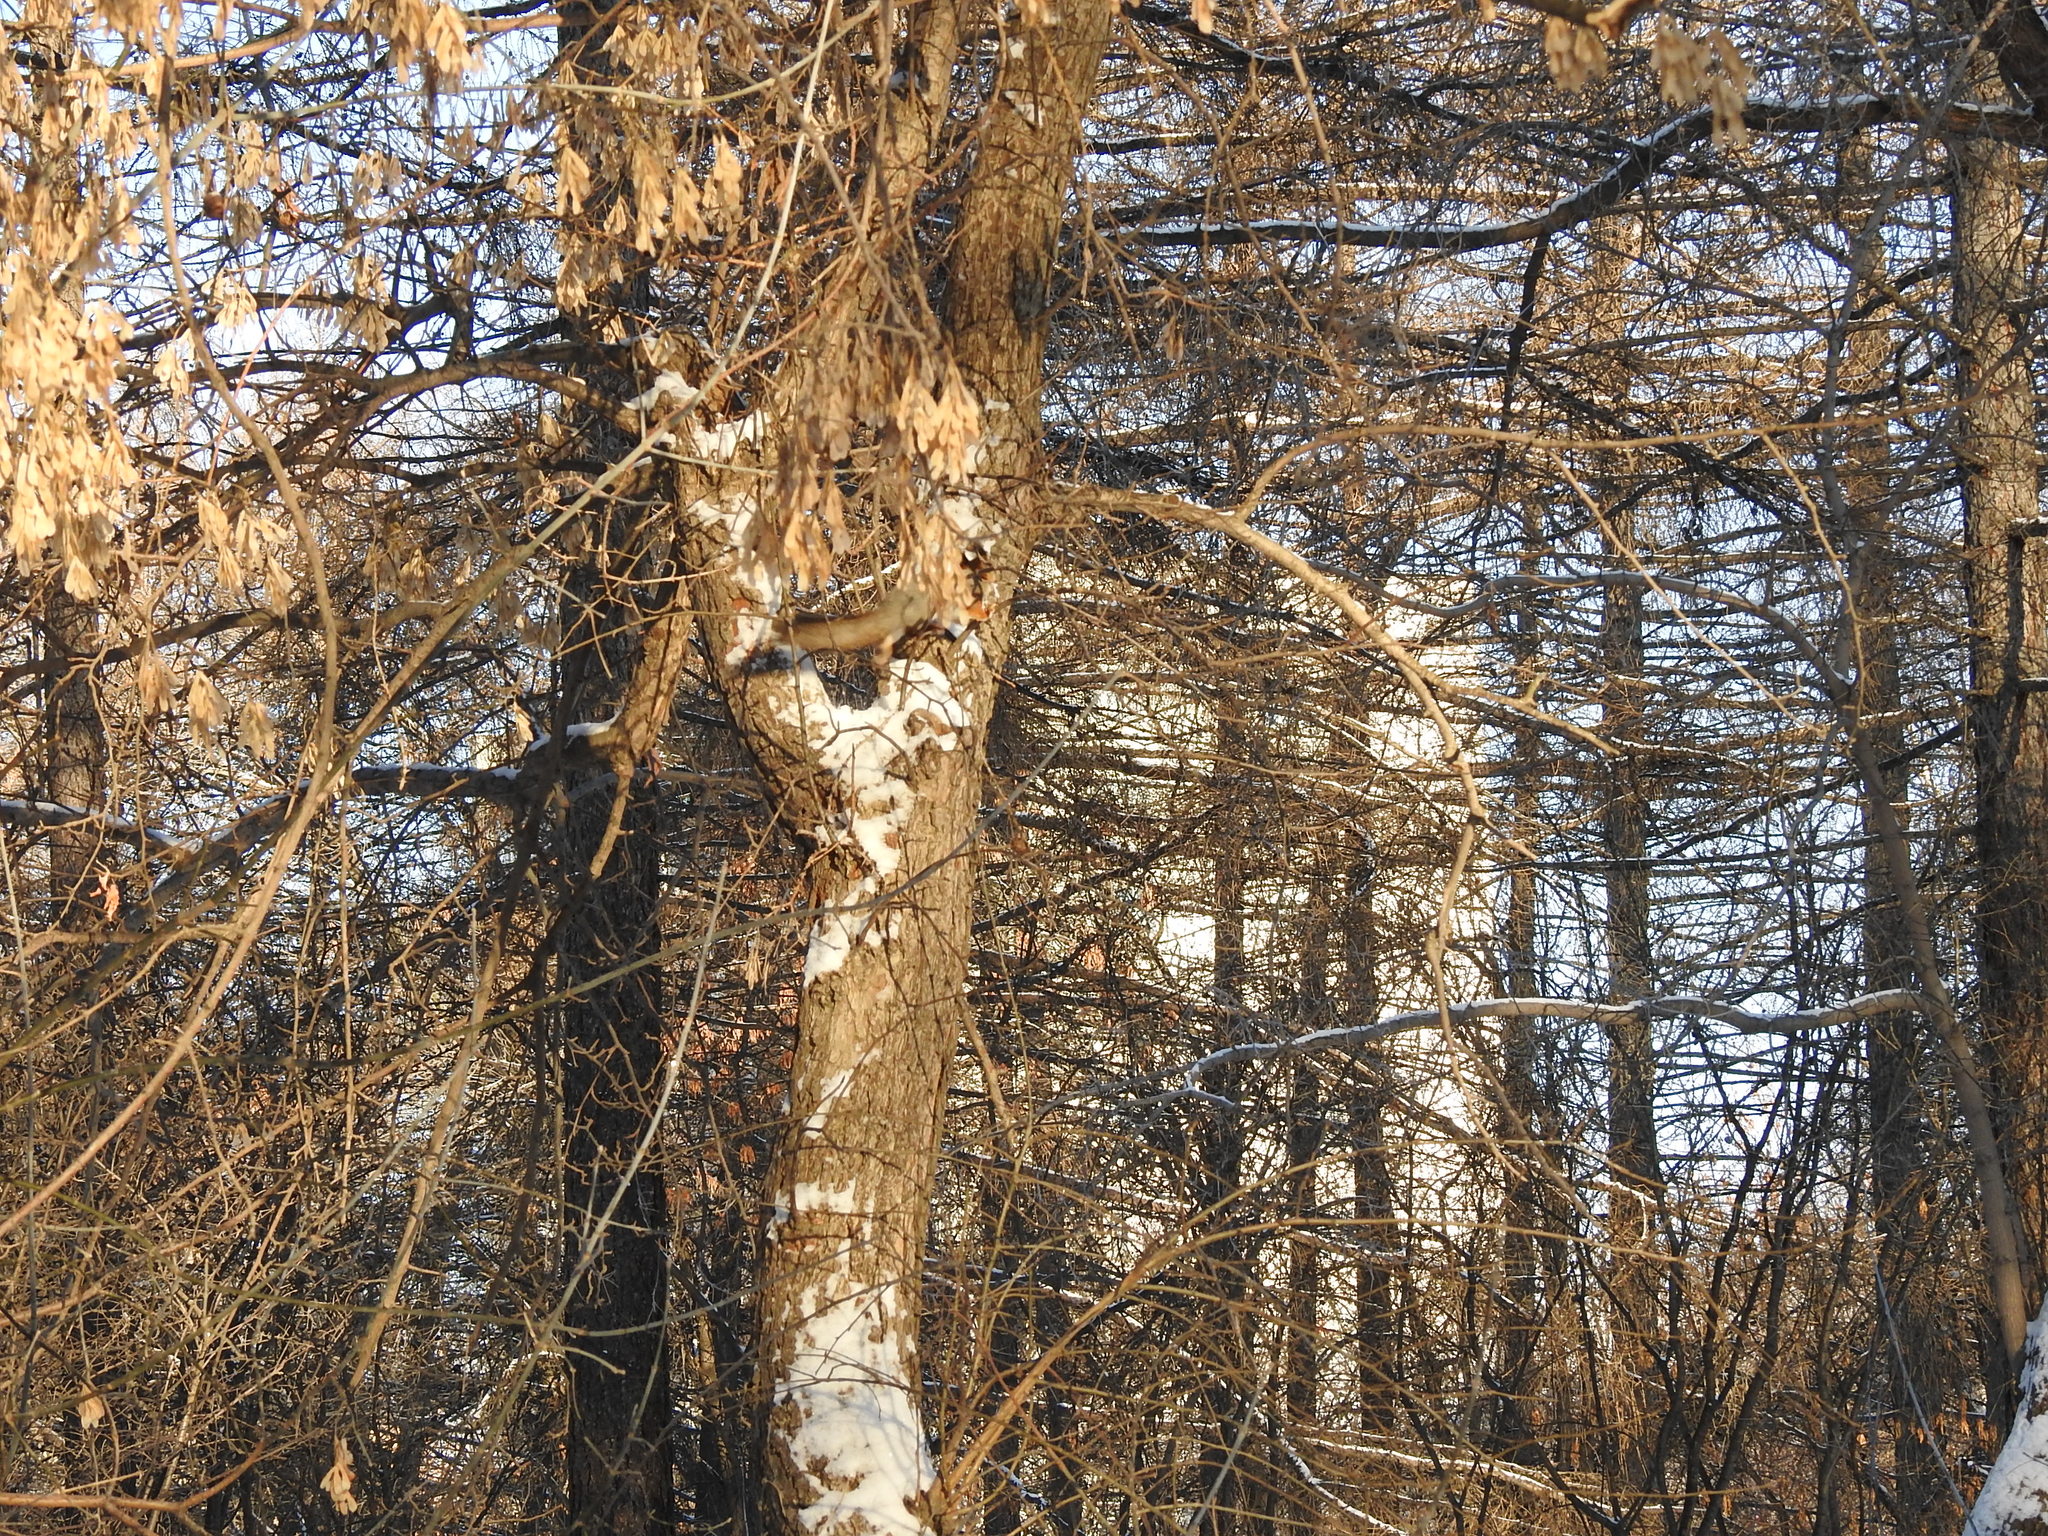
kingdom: Animalia
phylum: Chordata
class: Mammalia
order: Rodentia
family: Sciuridae
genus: Sciurus
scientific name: Sciurus vulgaris
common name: Eurasian red squirrel
